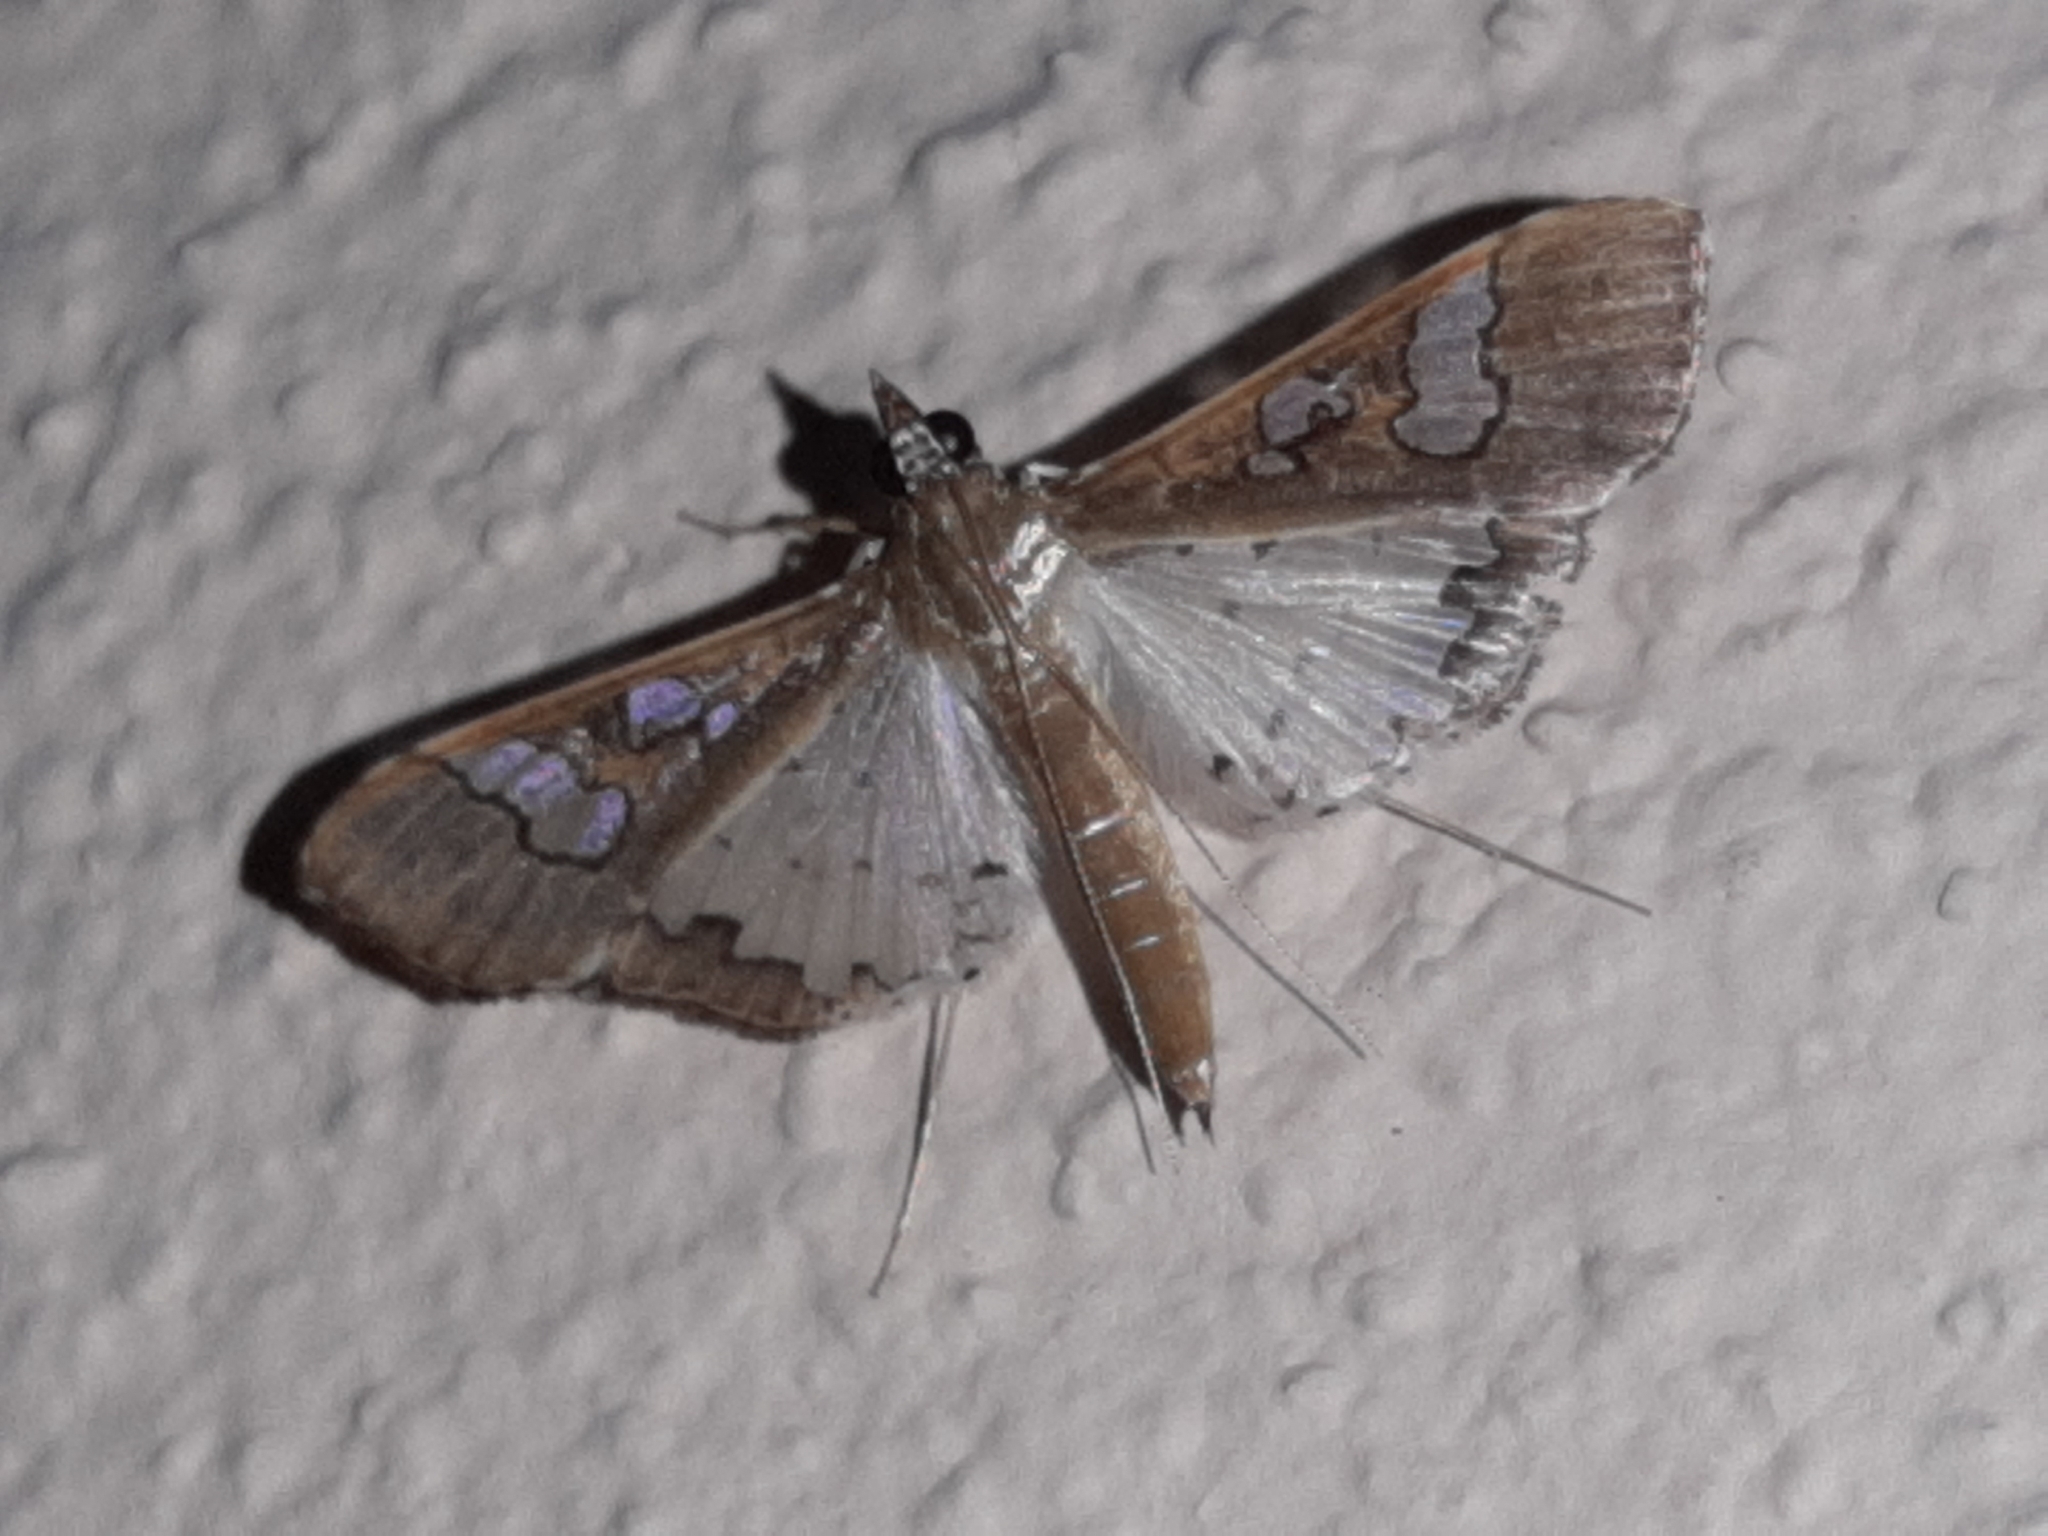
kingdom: Animalia
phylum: Arthropoda
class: Insecta
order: Lepidoptera
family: Crambidae
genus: Maruca
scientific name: Maruca vitrata
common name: Maruca pod borer
